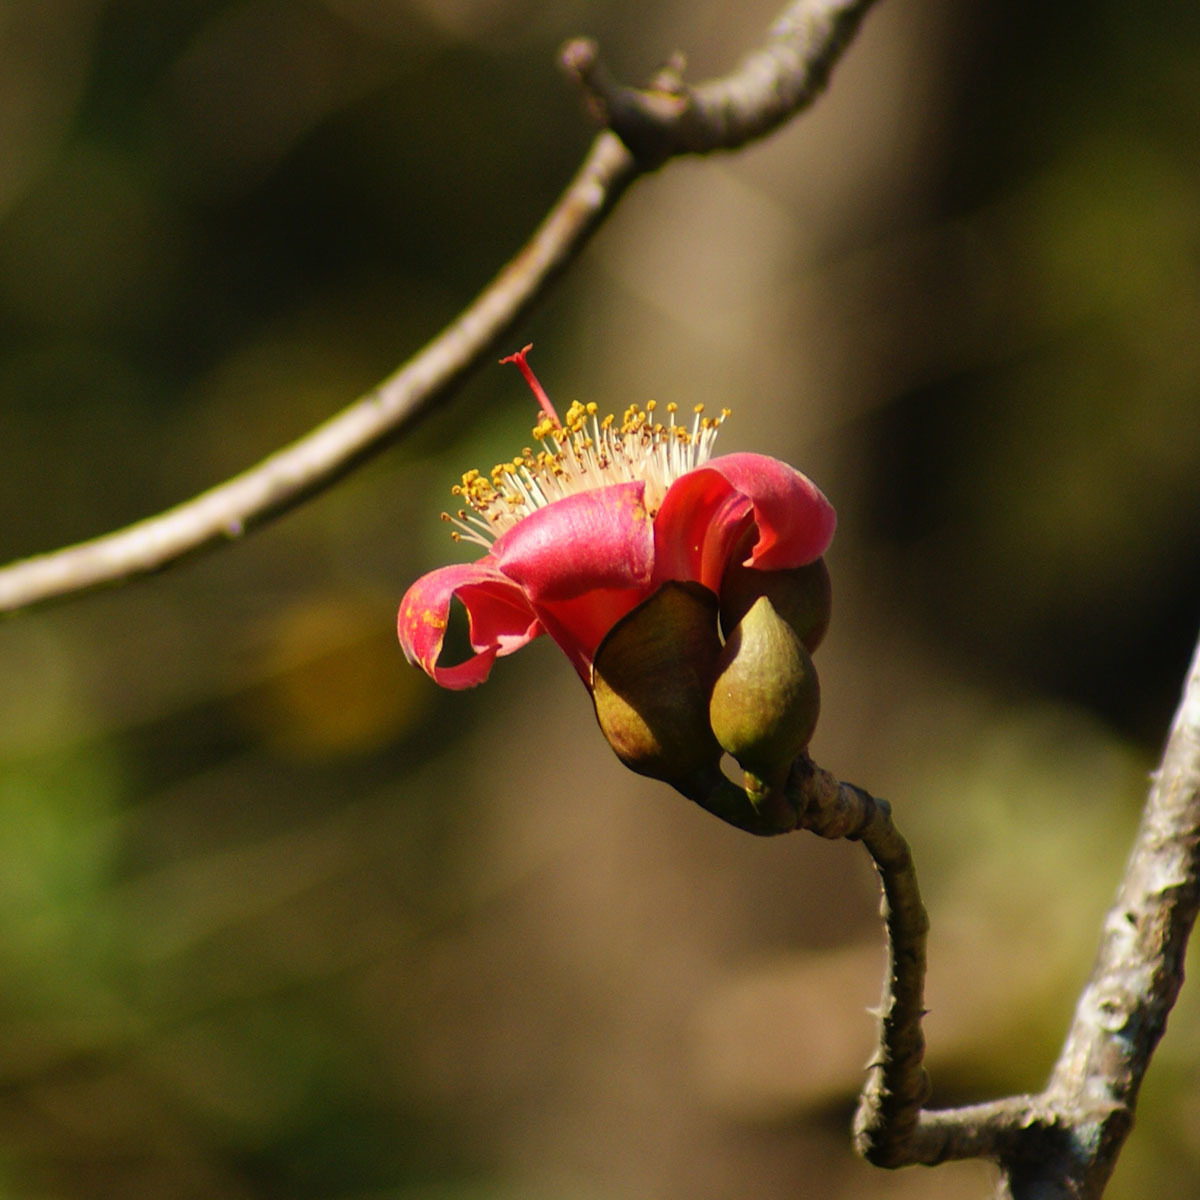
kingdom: Plantae
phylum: Tracheophyta
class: Magnoliopsida
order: Malvales
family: Malvaceae
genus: Bombax
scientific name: Bombax ceiba
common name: Northern-cottonwood
